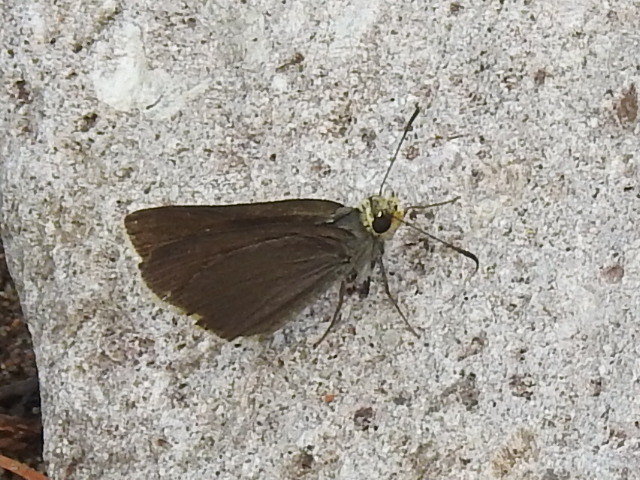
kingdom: Animalia
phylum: Arthropoda
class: Insecta
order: Lepidoptera
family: Hesperiidae
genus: Mastor
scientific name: Mastor fimbriata
